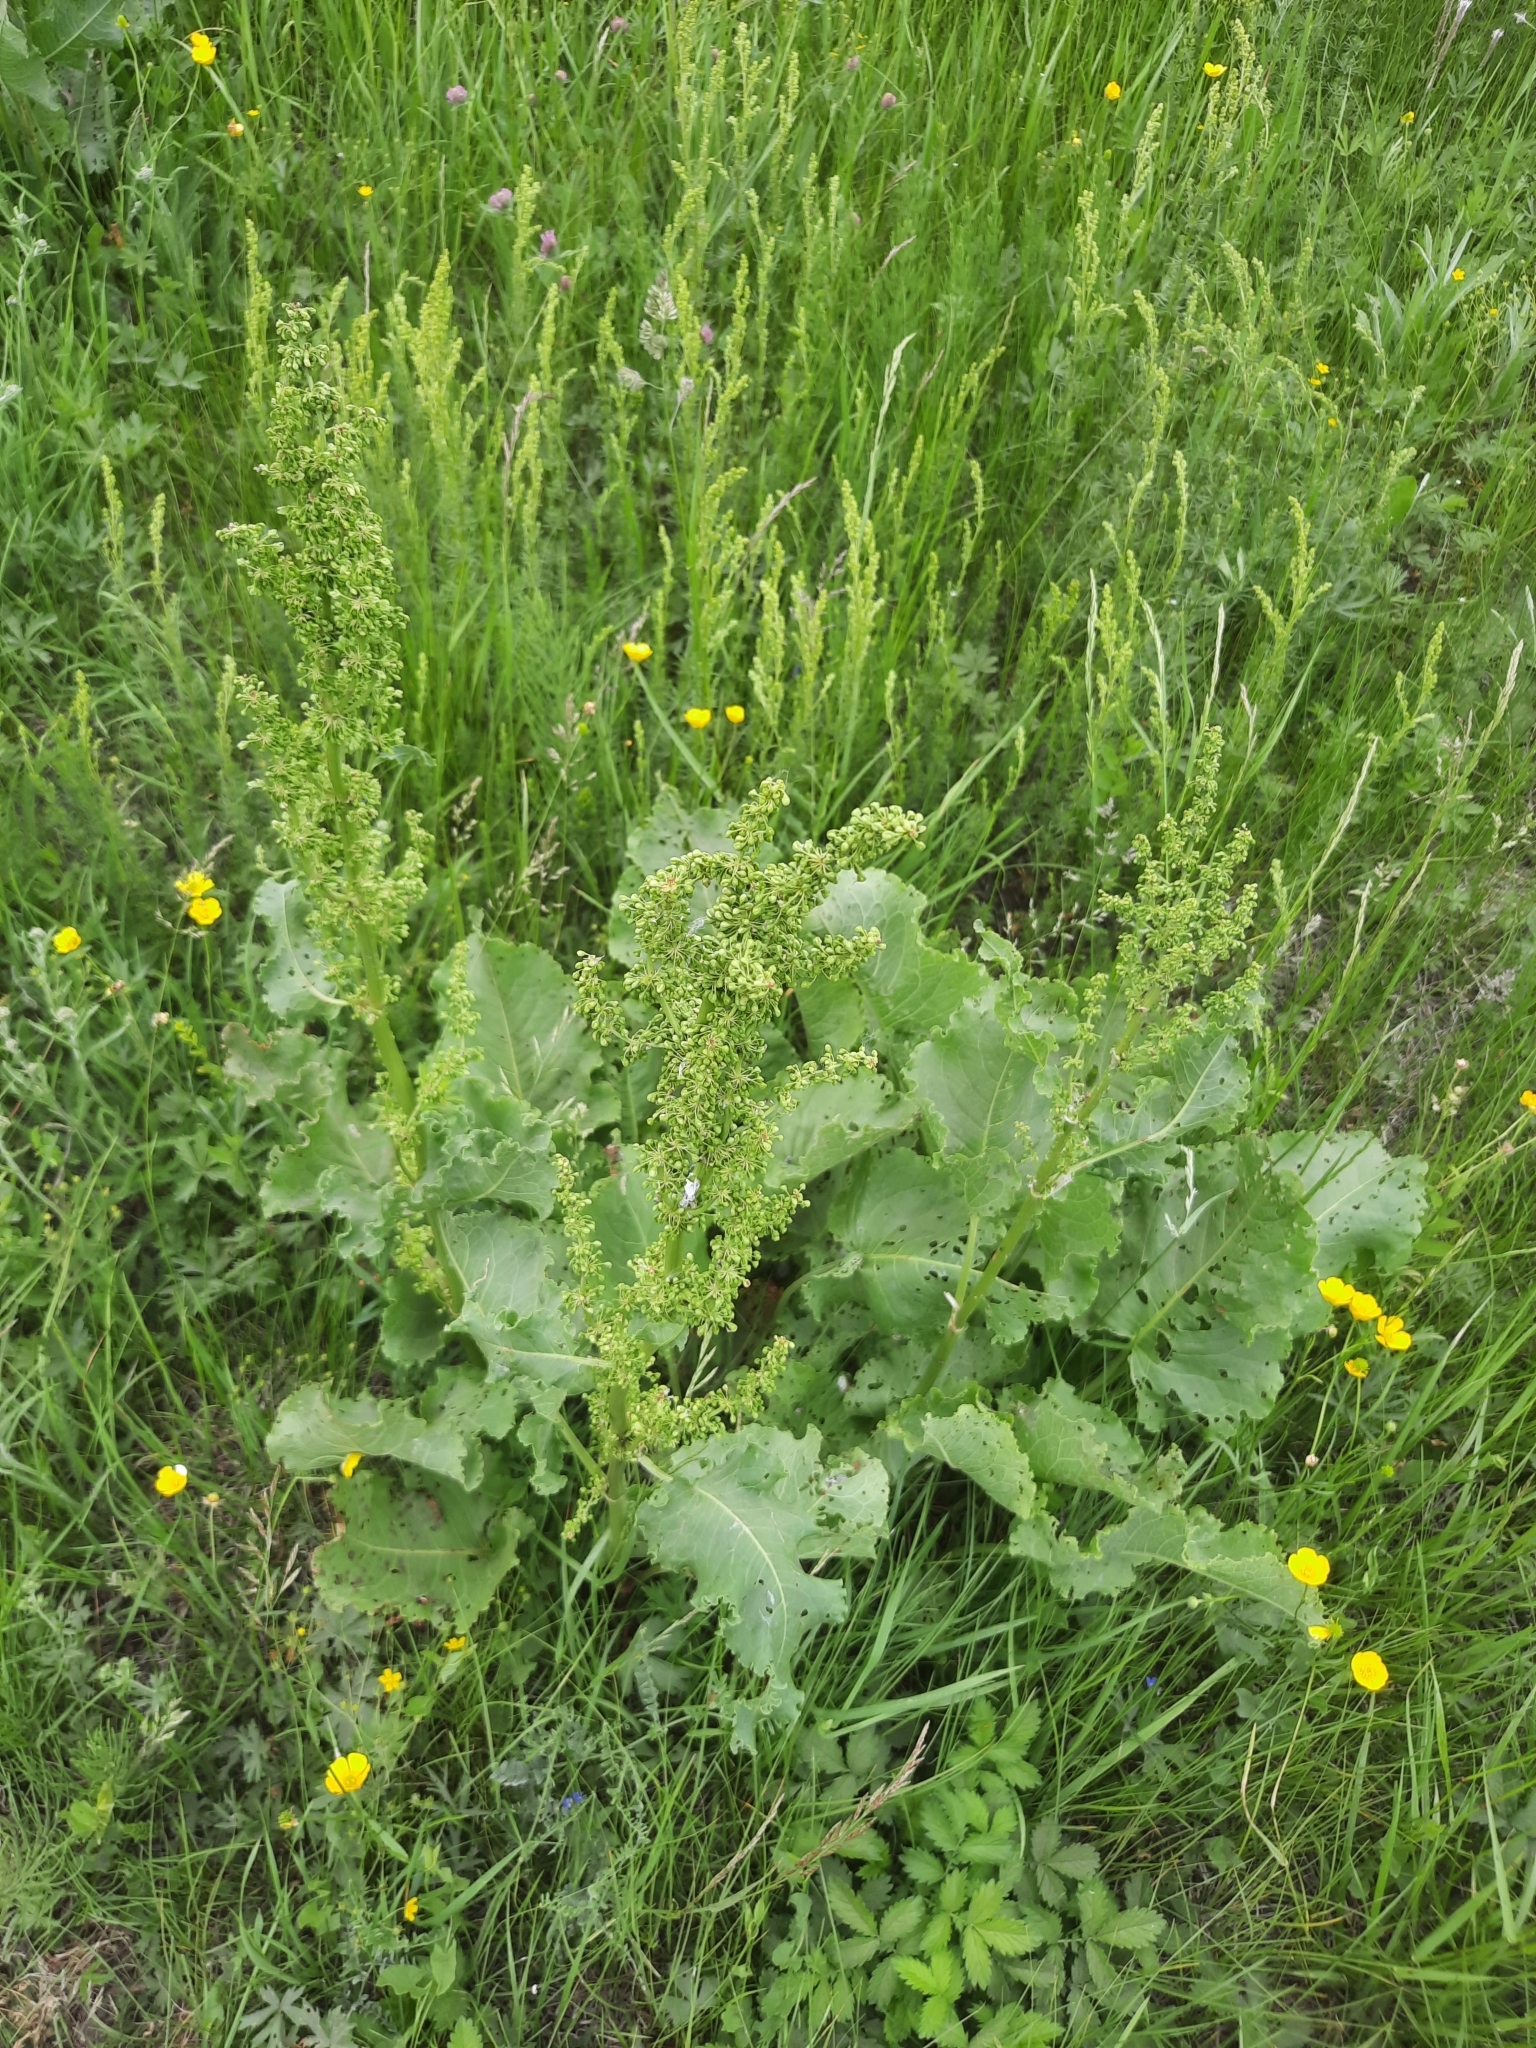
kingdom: Plantae
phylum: Tracheophyta
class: Magnoliopsida
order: Caryophyllales
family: Polygonaceae
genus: Rumex
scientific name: Rumex confertus
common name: Russian dock
